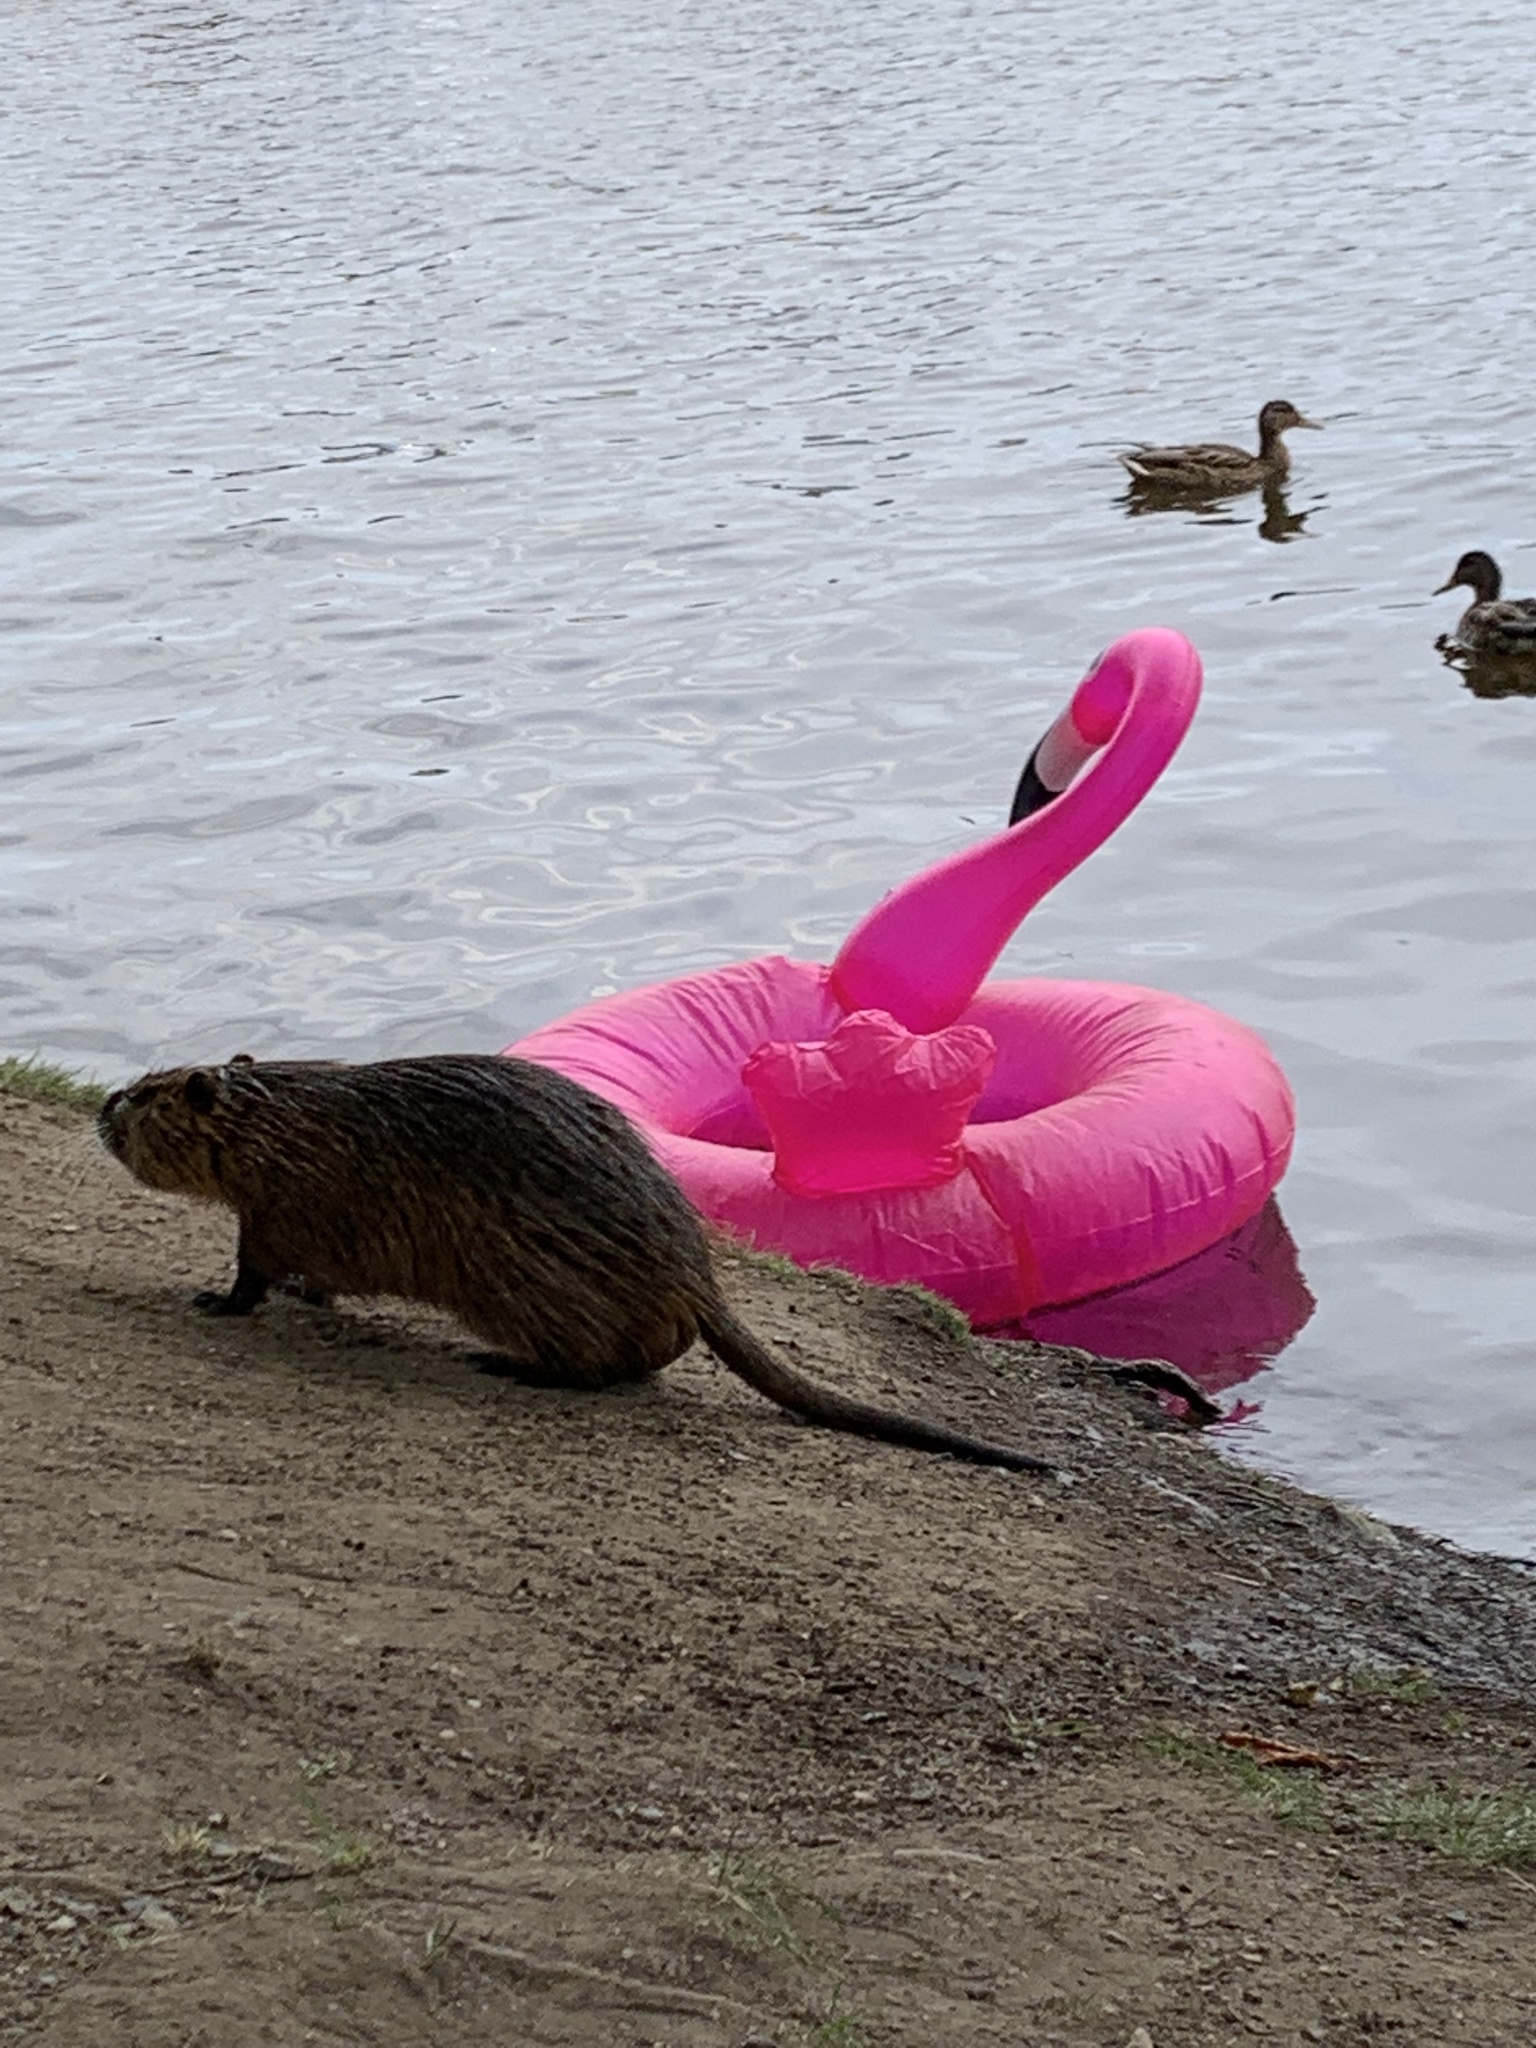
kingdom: Animalia
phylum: Chordata
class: Mammalia
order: Rodentia
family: Myocastoridae
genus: Myocastor
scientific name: Myocastor coypus
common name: Coypu
